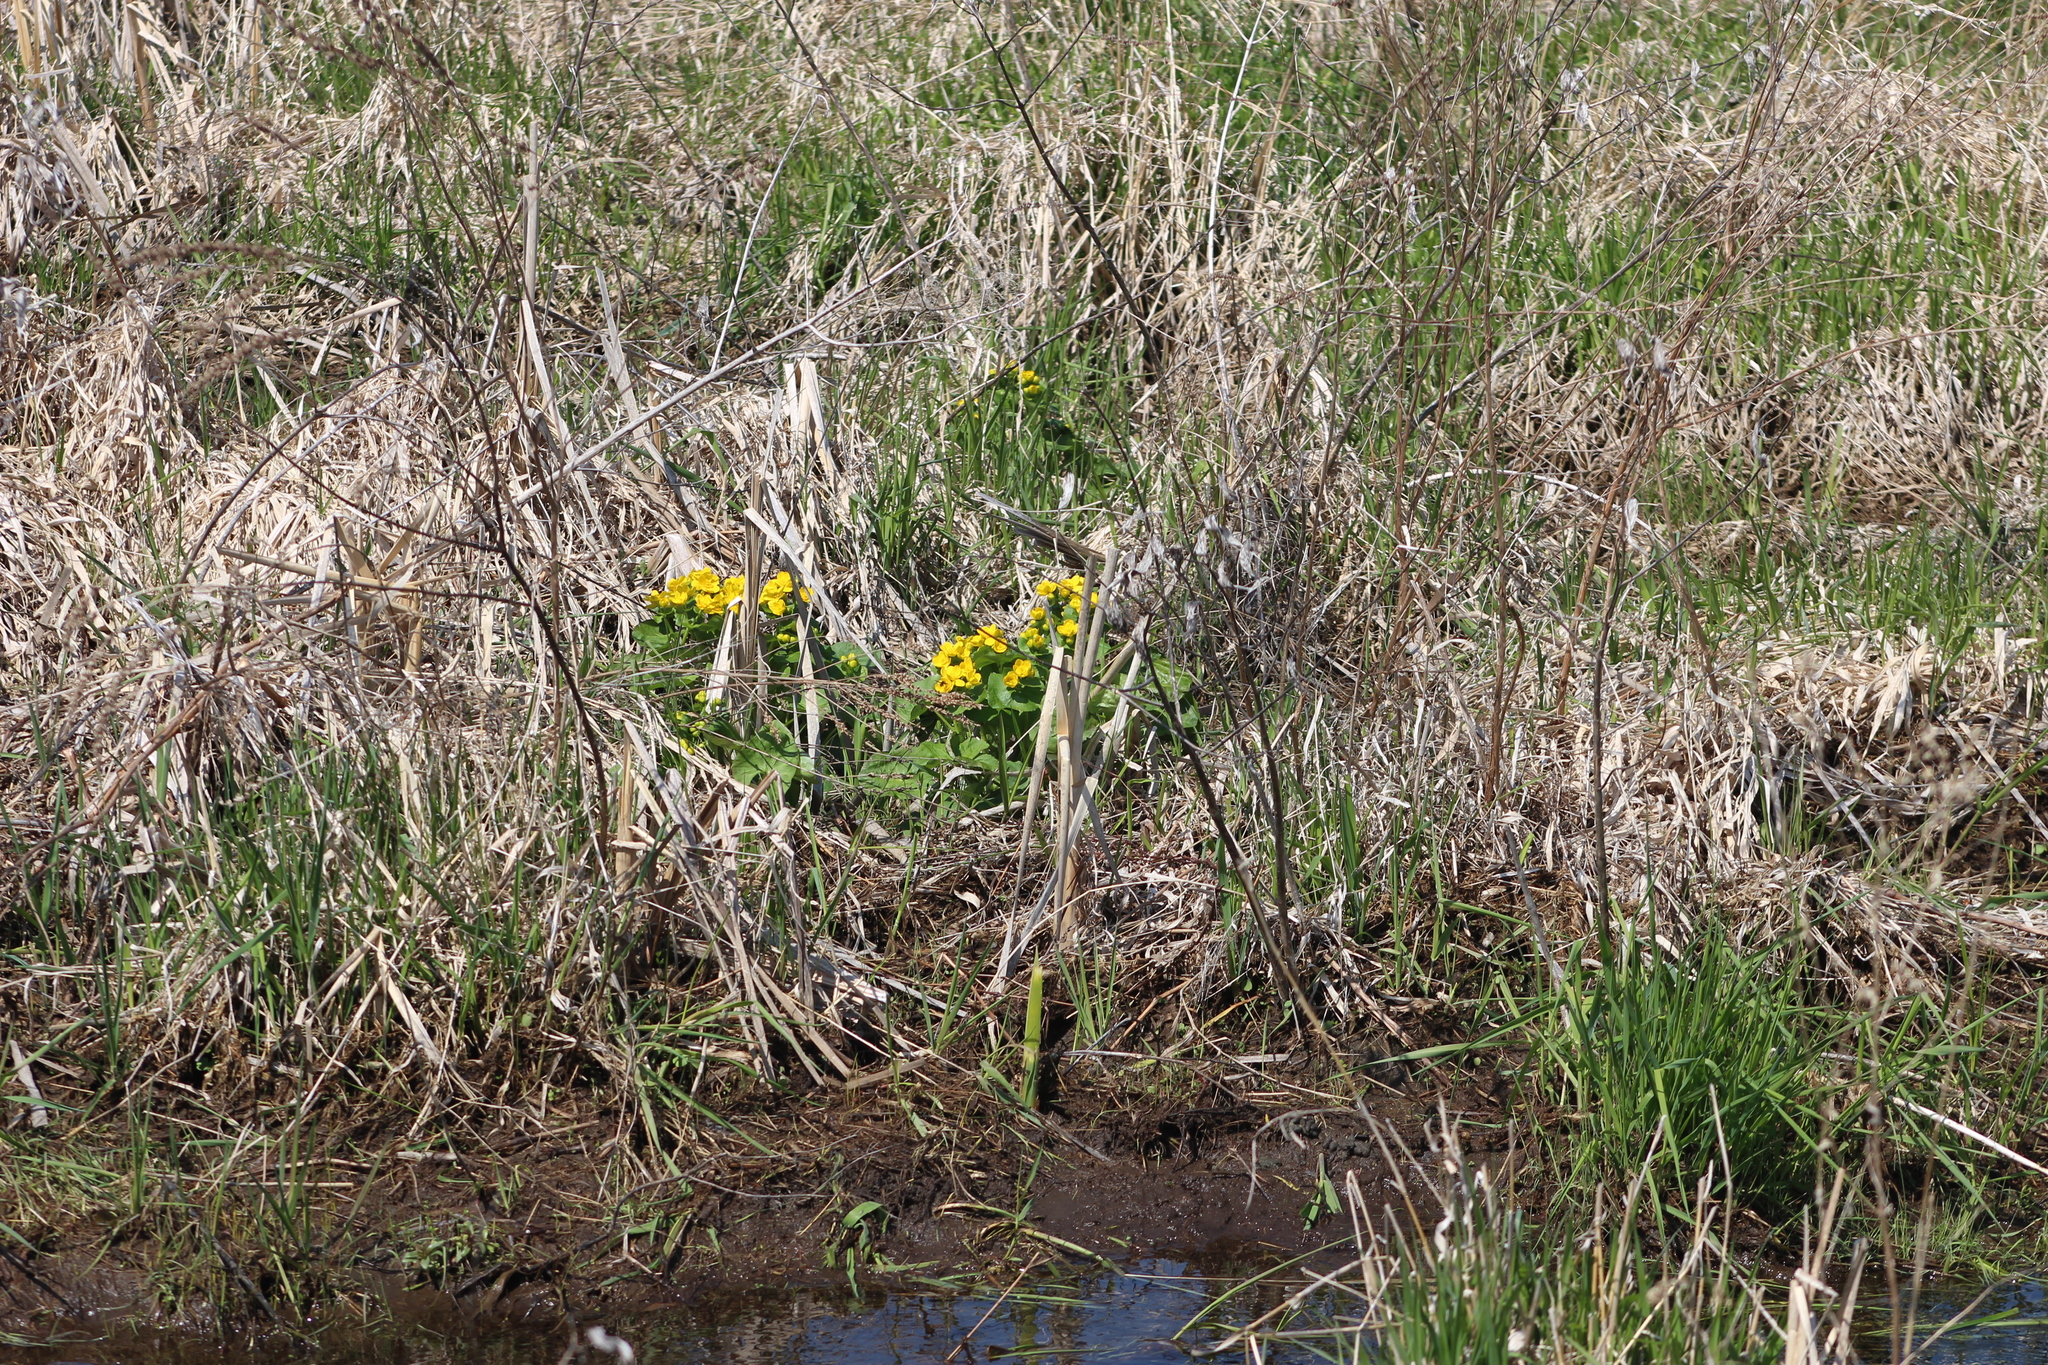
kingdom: Plantae
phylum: Tracheophyta
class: Magnoliopsida
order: Ranunculales
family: Ranunculaceae
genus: Caltha
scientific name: Caltha palustris
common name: Marsh marigold
